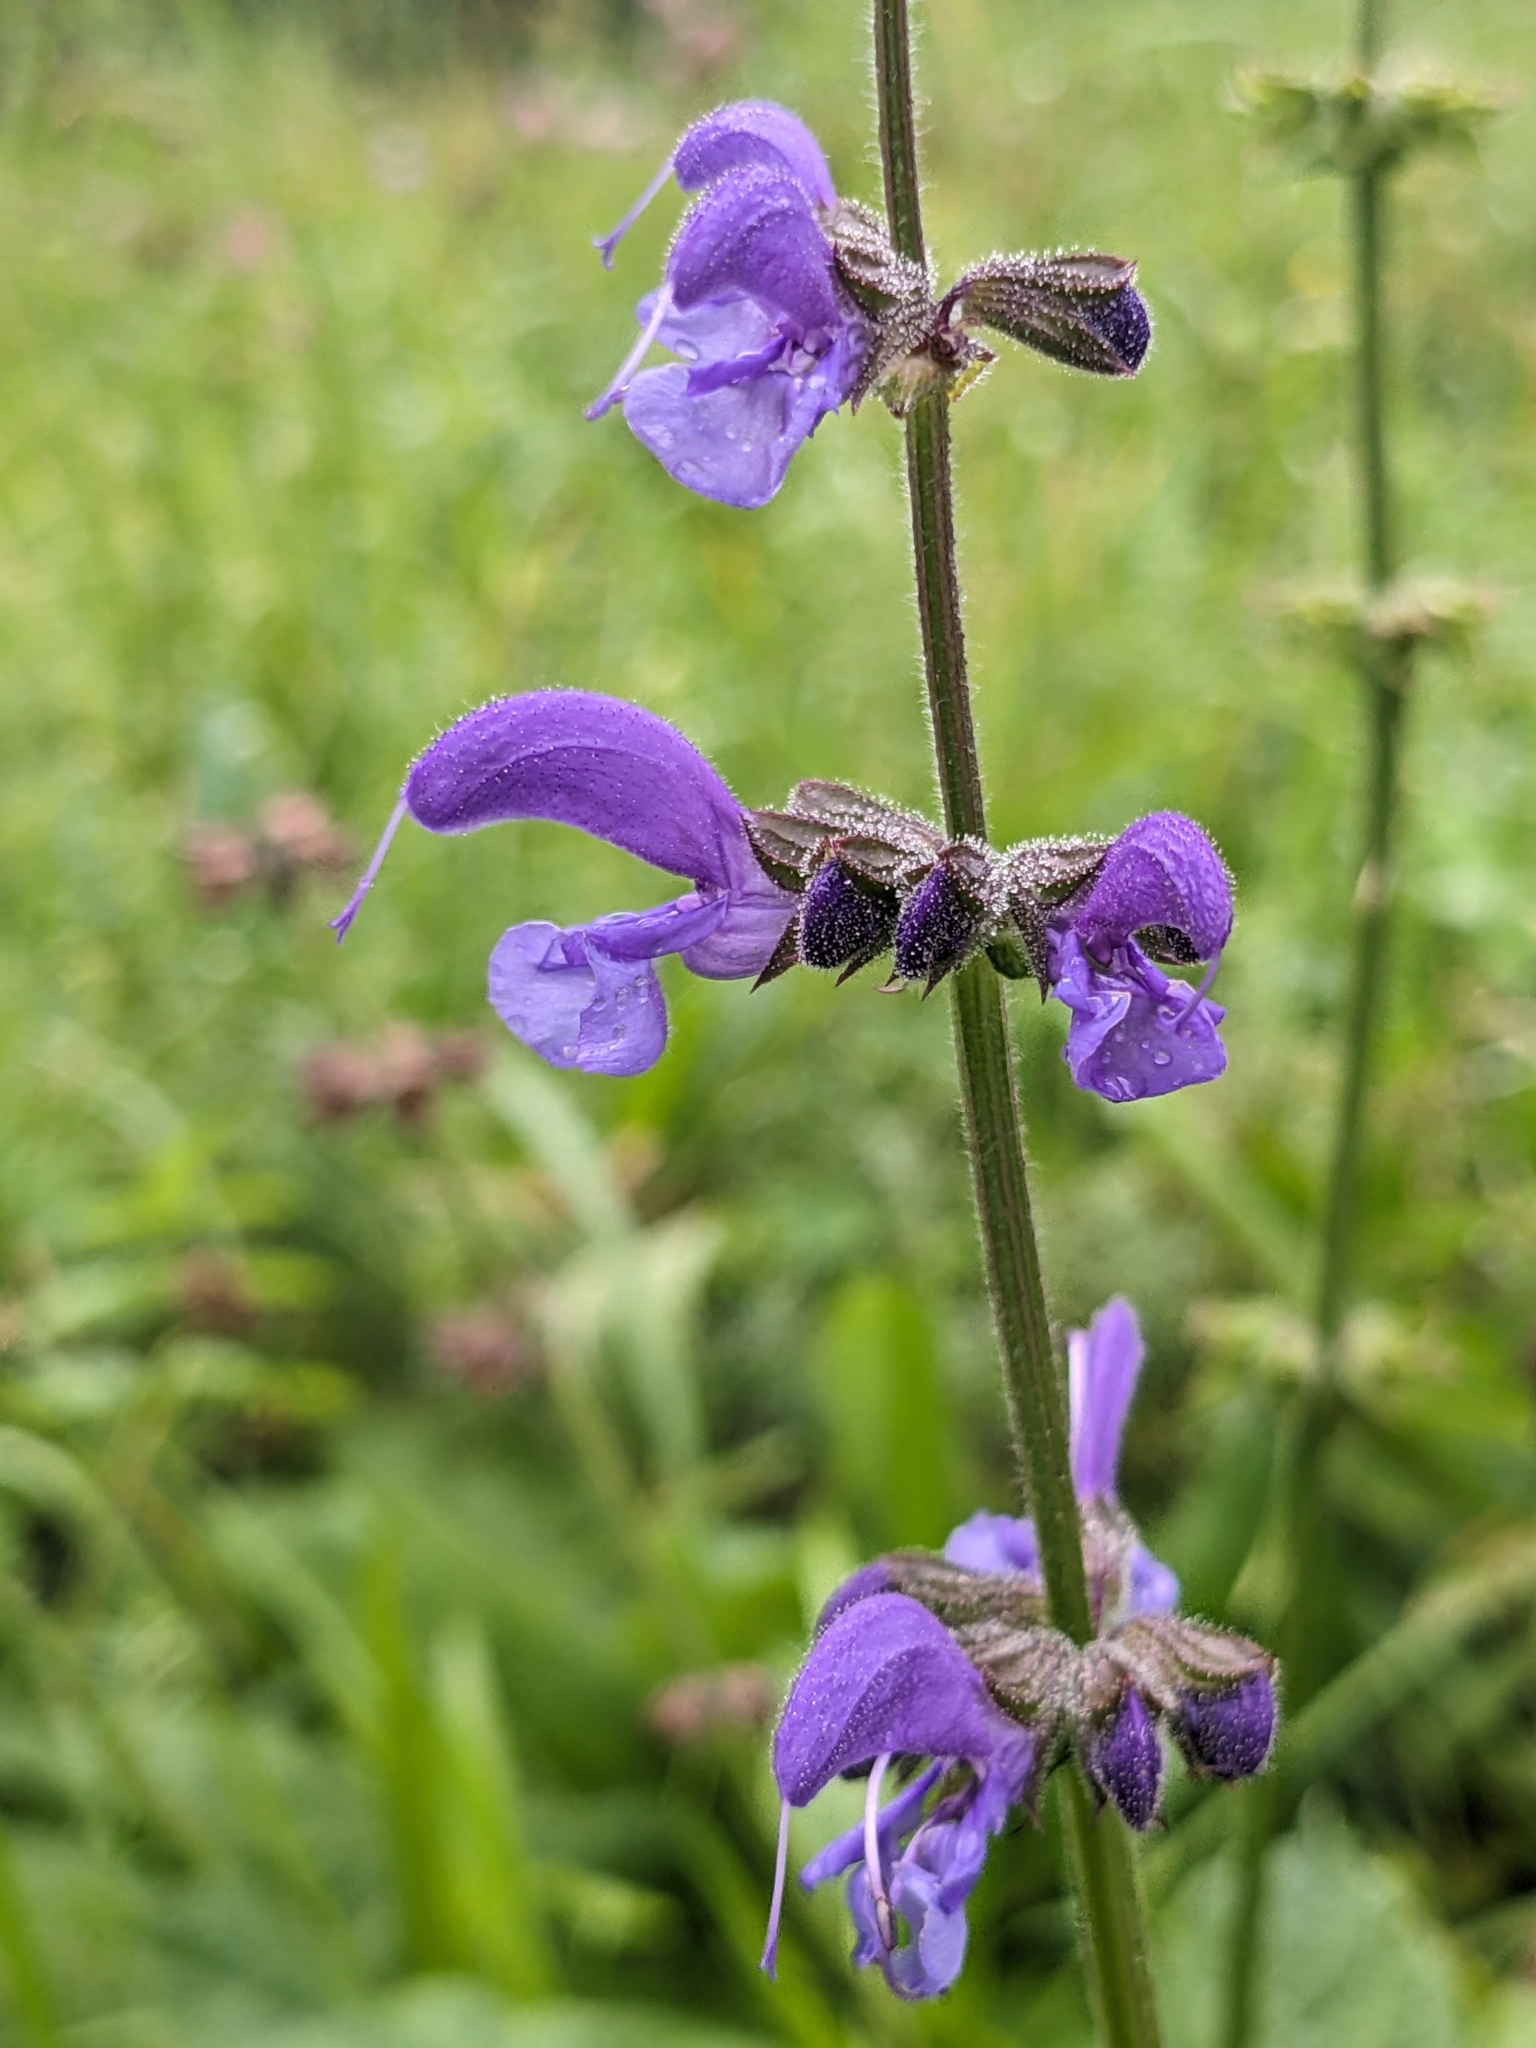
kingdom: Plantae
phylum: Tracheophyta
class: Magnoliopsida
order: Lamiales
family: Lamiaceae
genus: Salvia
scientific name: Salvia pratensis
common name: Meadow sage
